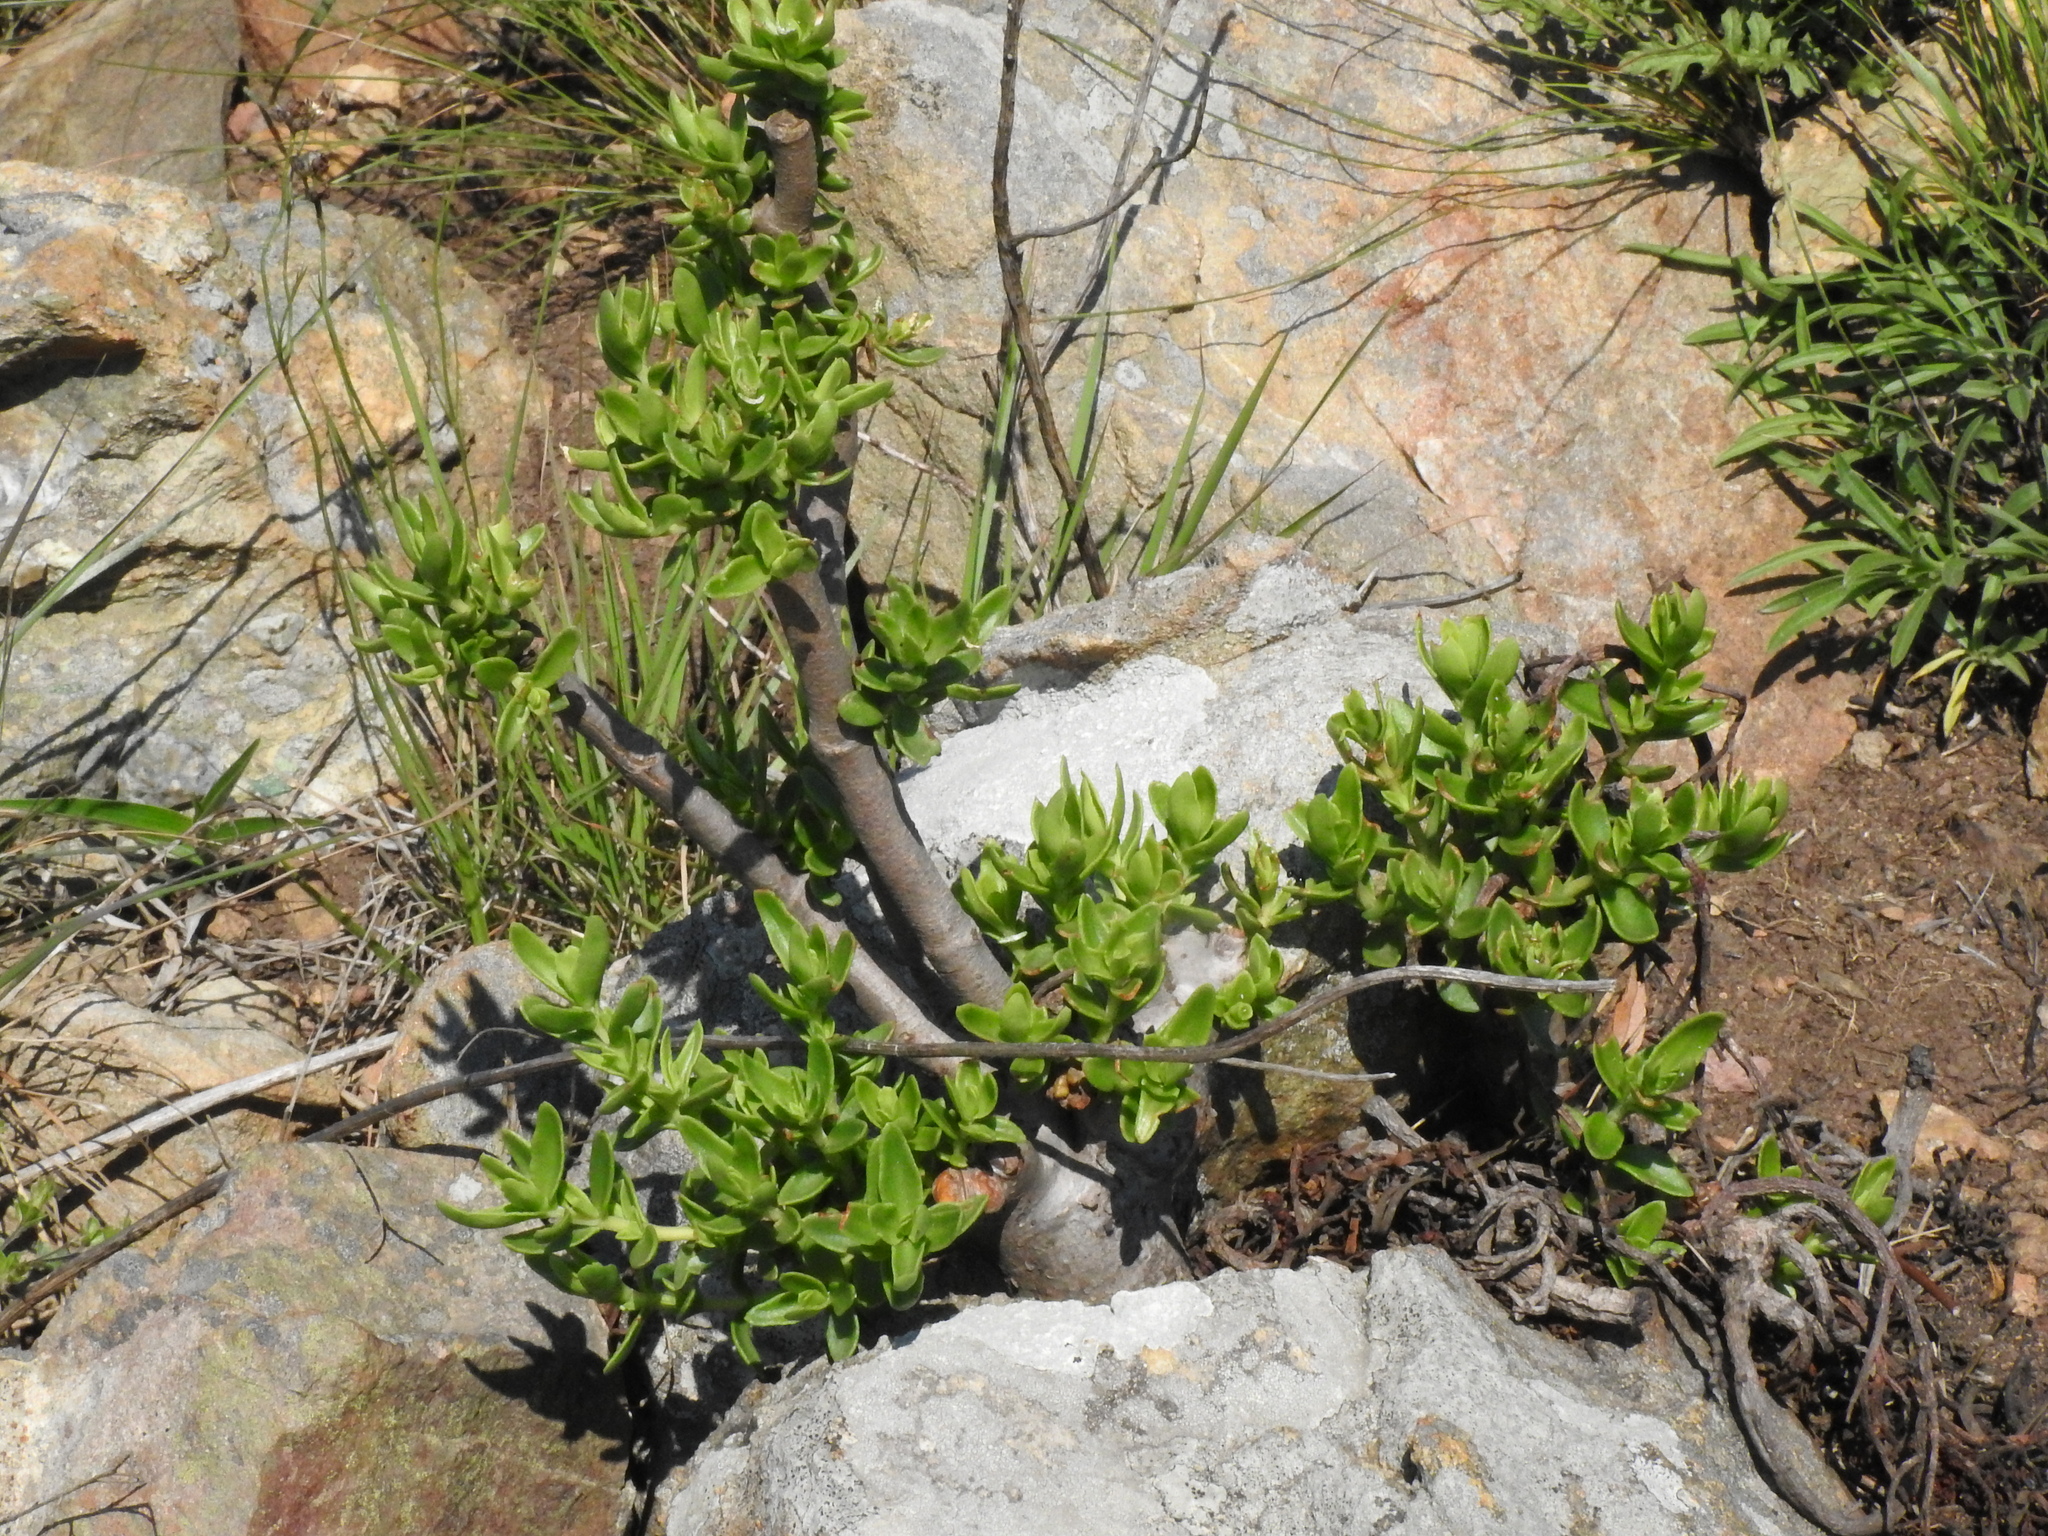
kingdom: Plantae
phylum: Tracheophyta
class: Magnoliopsida
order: Saxifragales
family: Crassulaceae
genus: Crassula
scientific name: Crassula sarcocaulis
